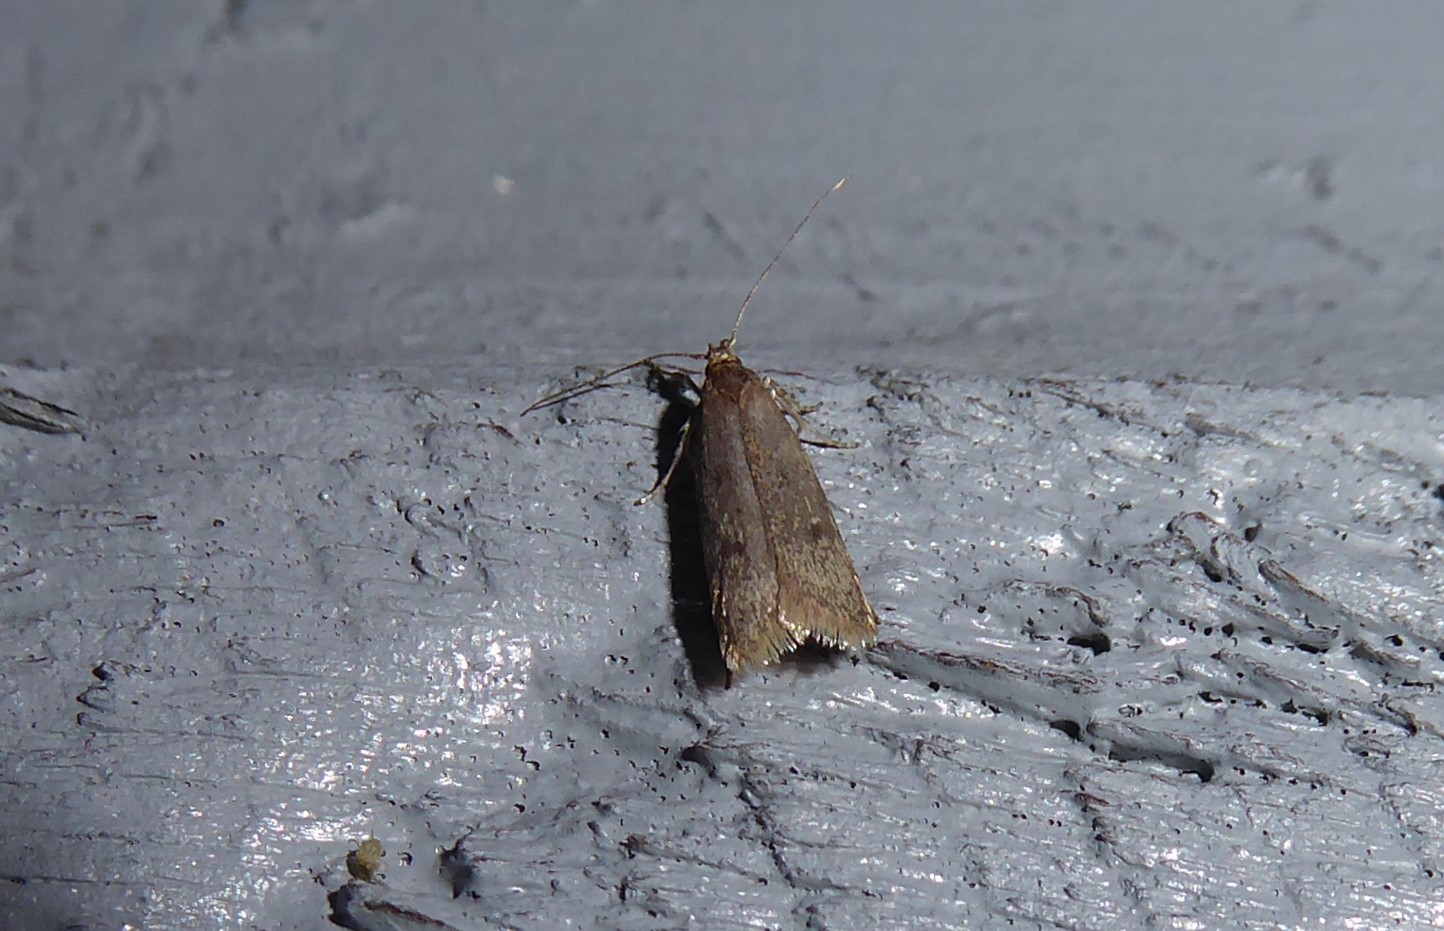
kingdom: Animalia
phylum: Arthropoda
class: Insecta
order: Lepidoptera
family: Oecophoridae
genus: Gymnobathra
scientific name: Gymnobathra tholodella
